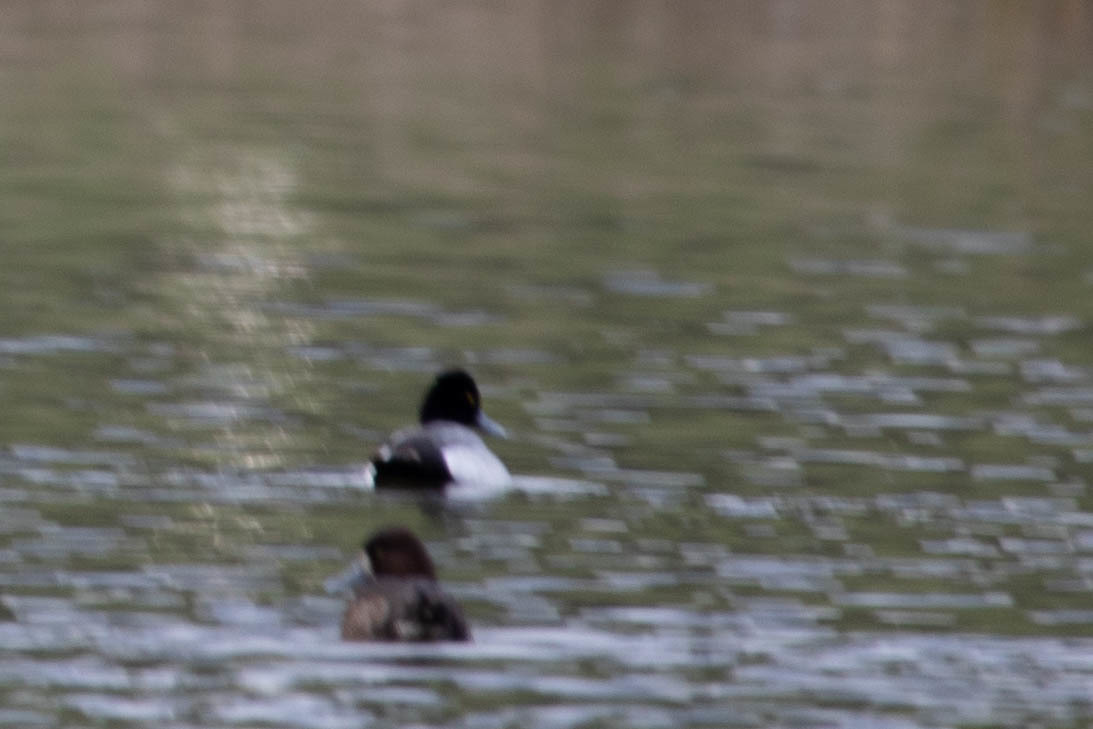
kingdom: Animalia
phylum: Chordata
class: Aves
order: Anseriformes
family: Anatidae
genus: Aythya
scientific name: Aythya affinis
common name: Lesser scaup
